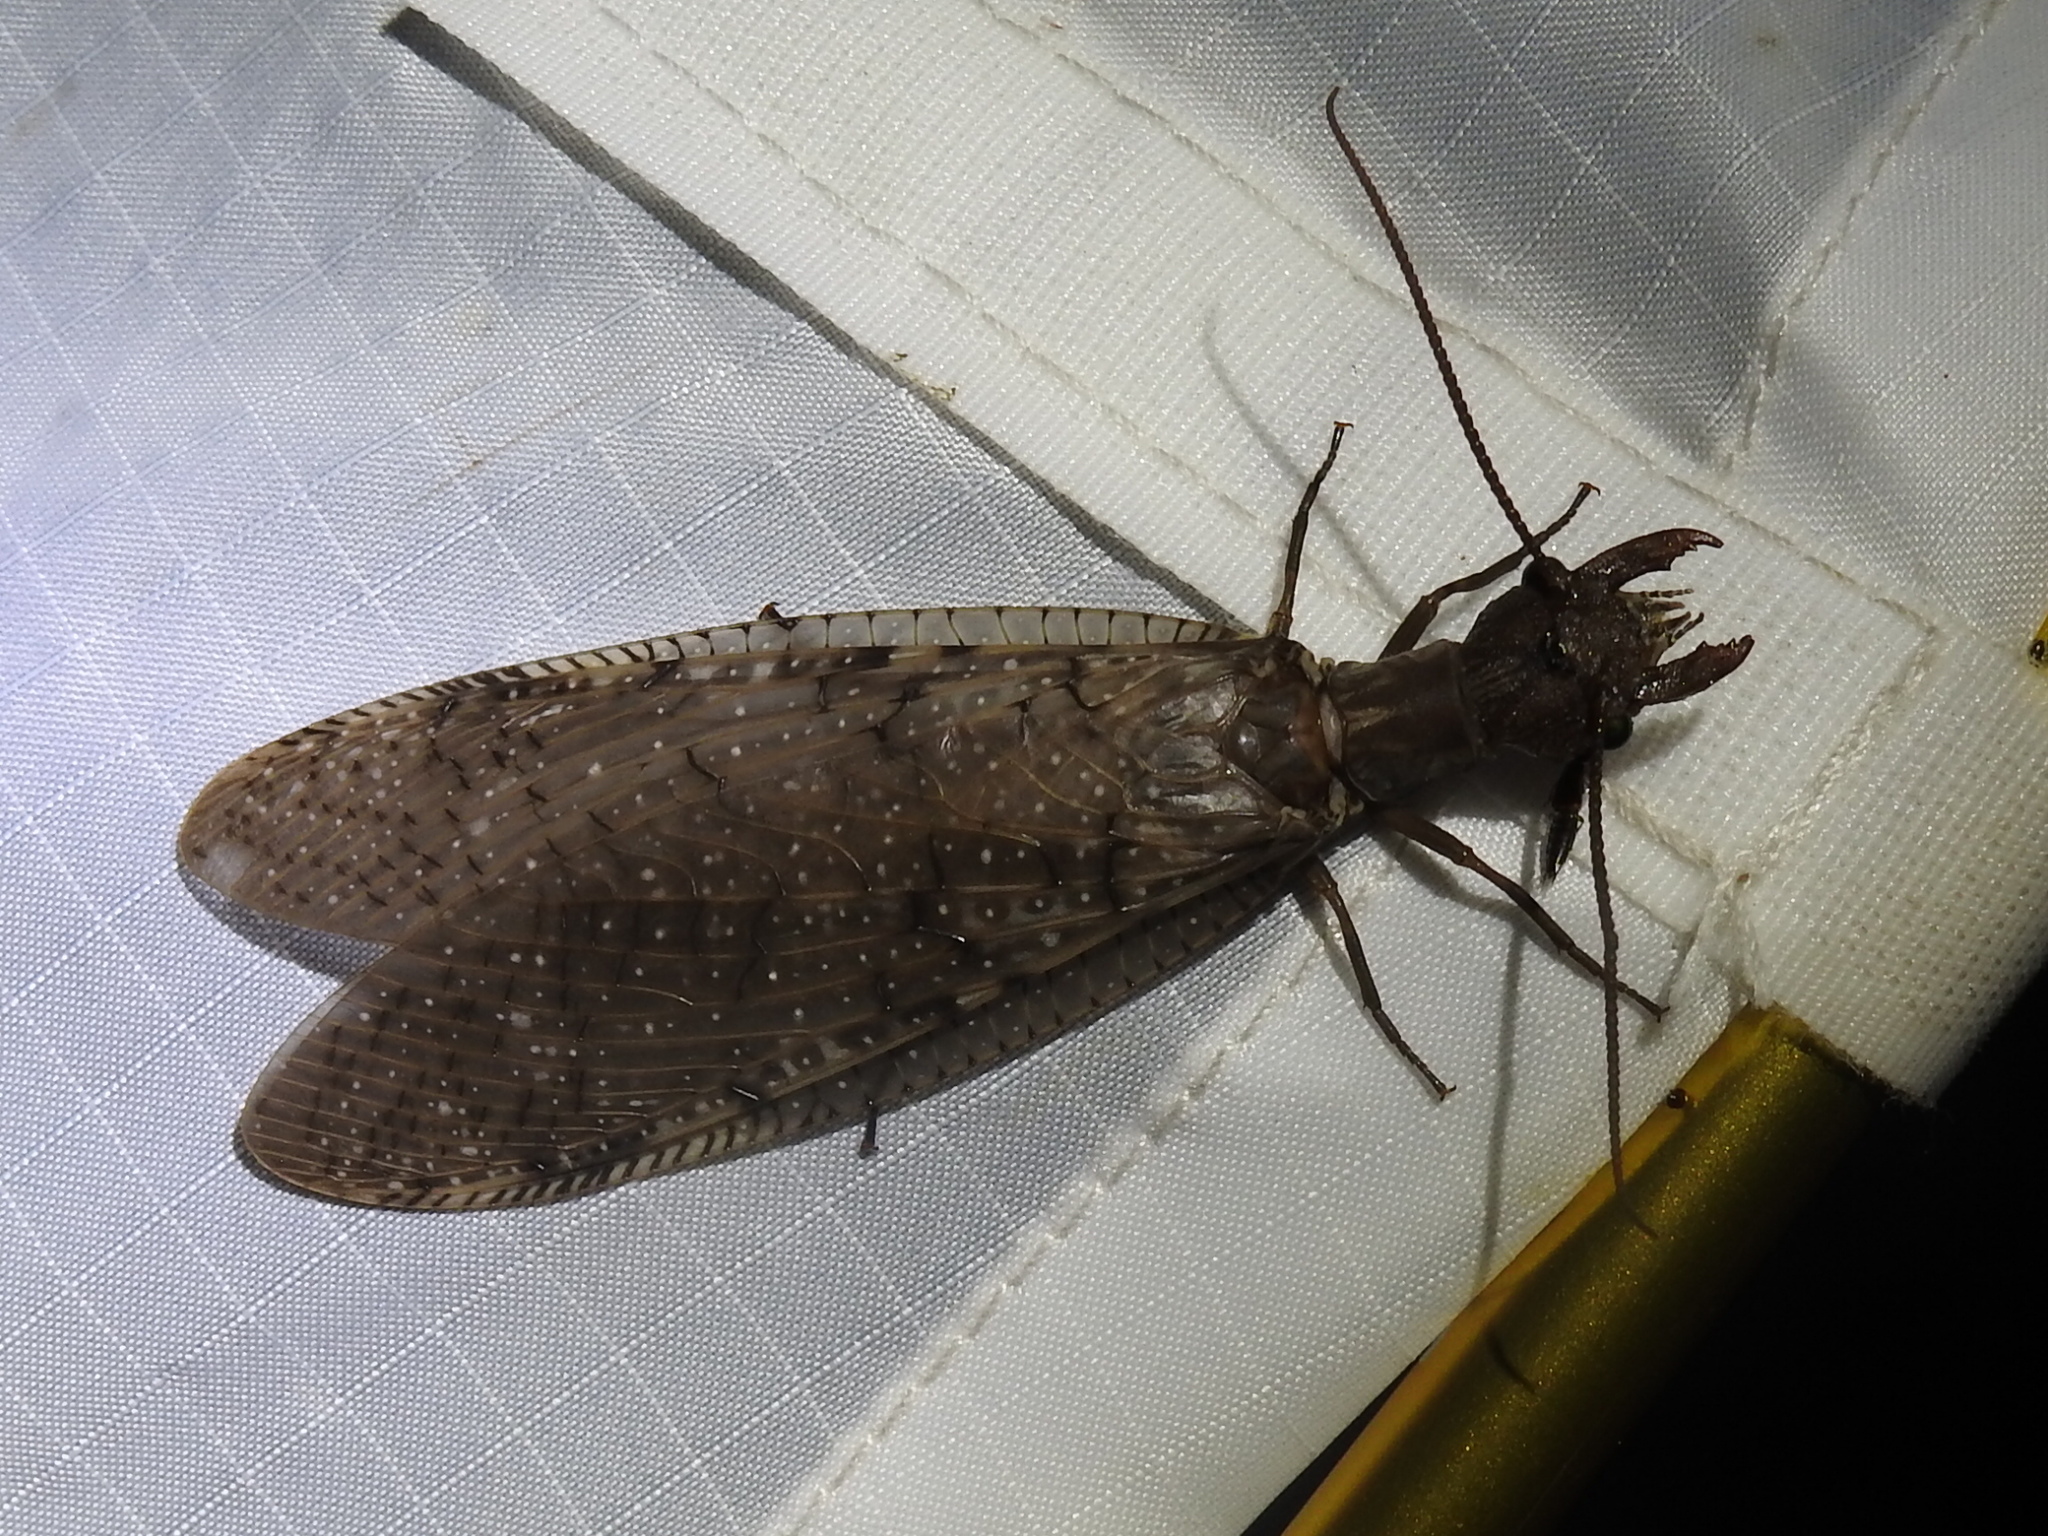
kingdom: Animalia
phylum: Arthropoda
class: Insecta
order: Megaloptera
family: Corydalidae
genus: Corydalus
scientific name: Corydalus cornutus
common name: Dobsonfly
